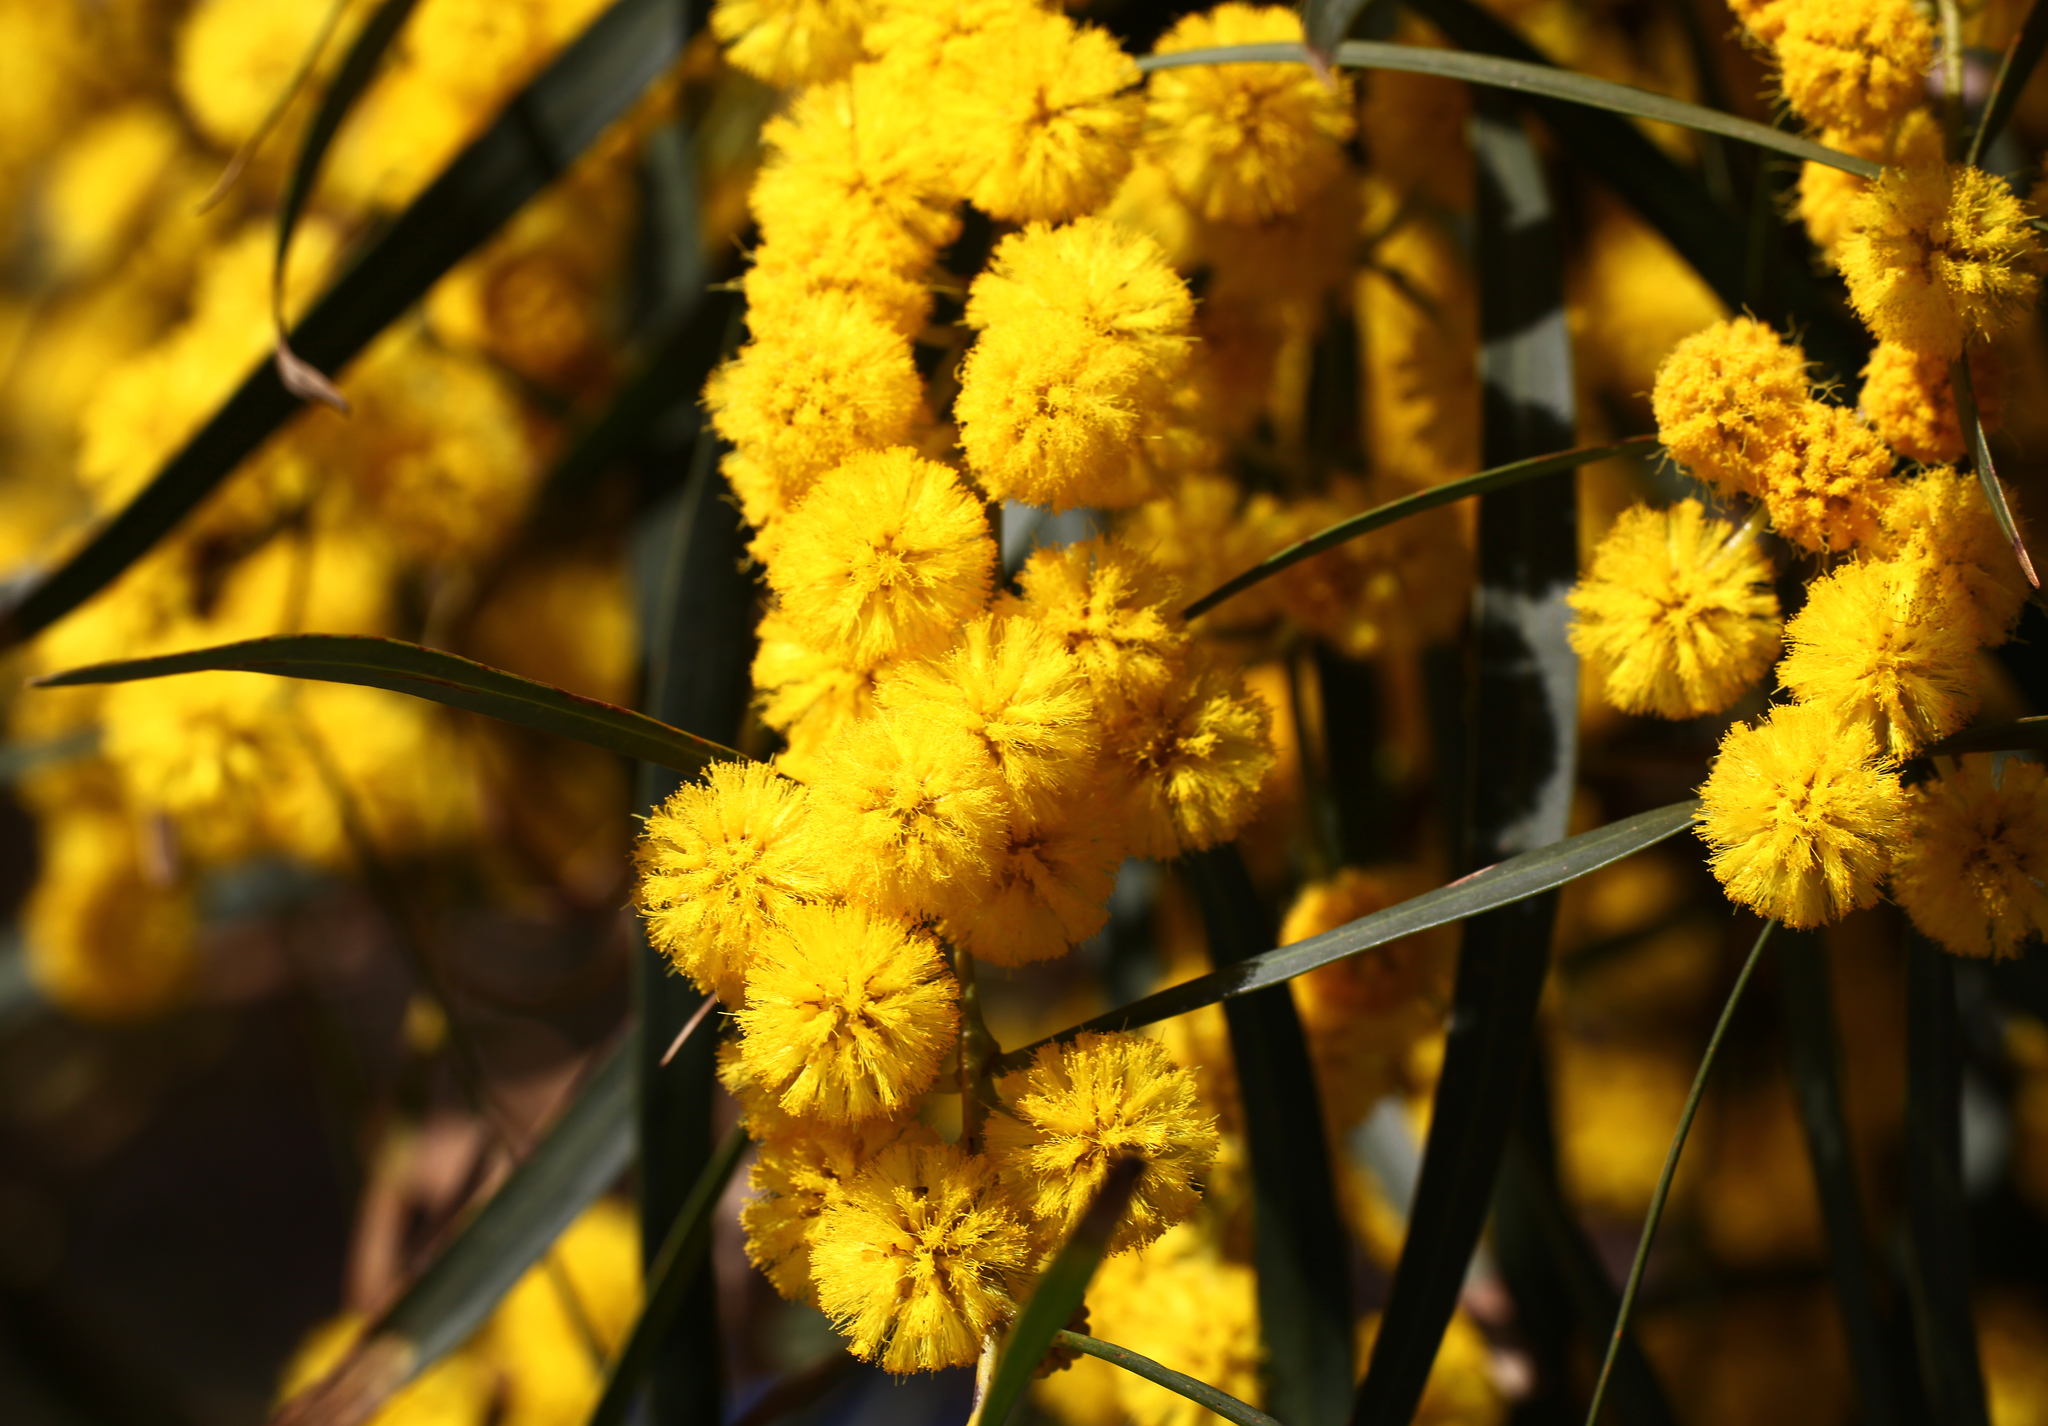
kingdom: Plantae
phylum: Tracheophyta
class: Magnoliopsida
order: Fabales
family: Fabaceae
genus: Acacia
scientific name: Acacia saligna
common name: Orange wattle
